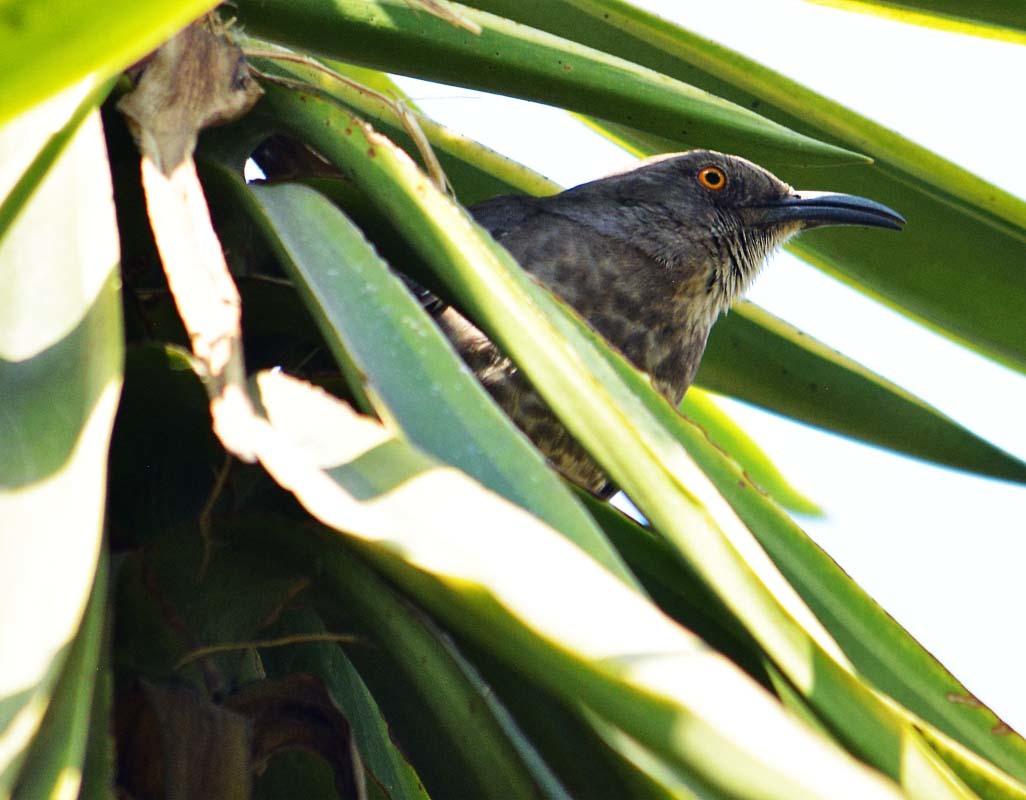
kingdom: Animalia
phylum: Chordata
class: Aves
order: Passeriformes
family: Mimidae
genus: Toxostoma
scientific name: Toxostoma curvirostre
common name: Curve-billed thrasher
